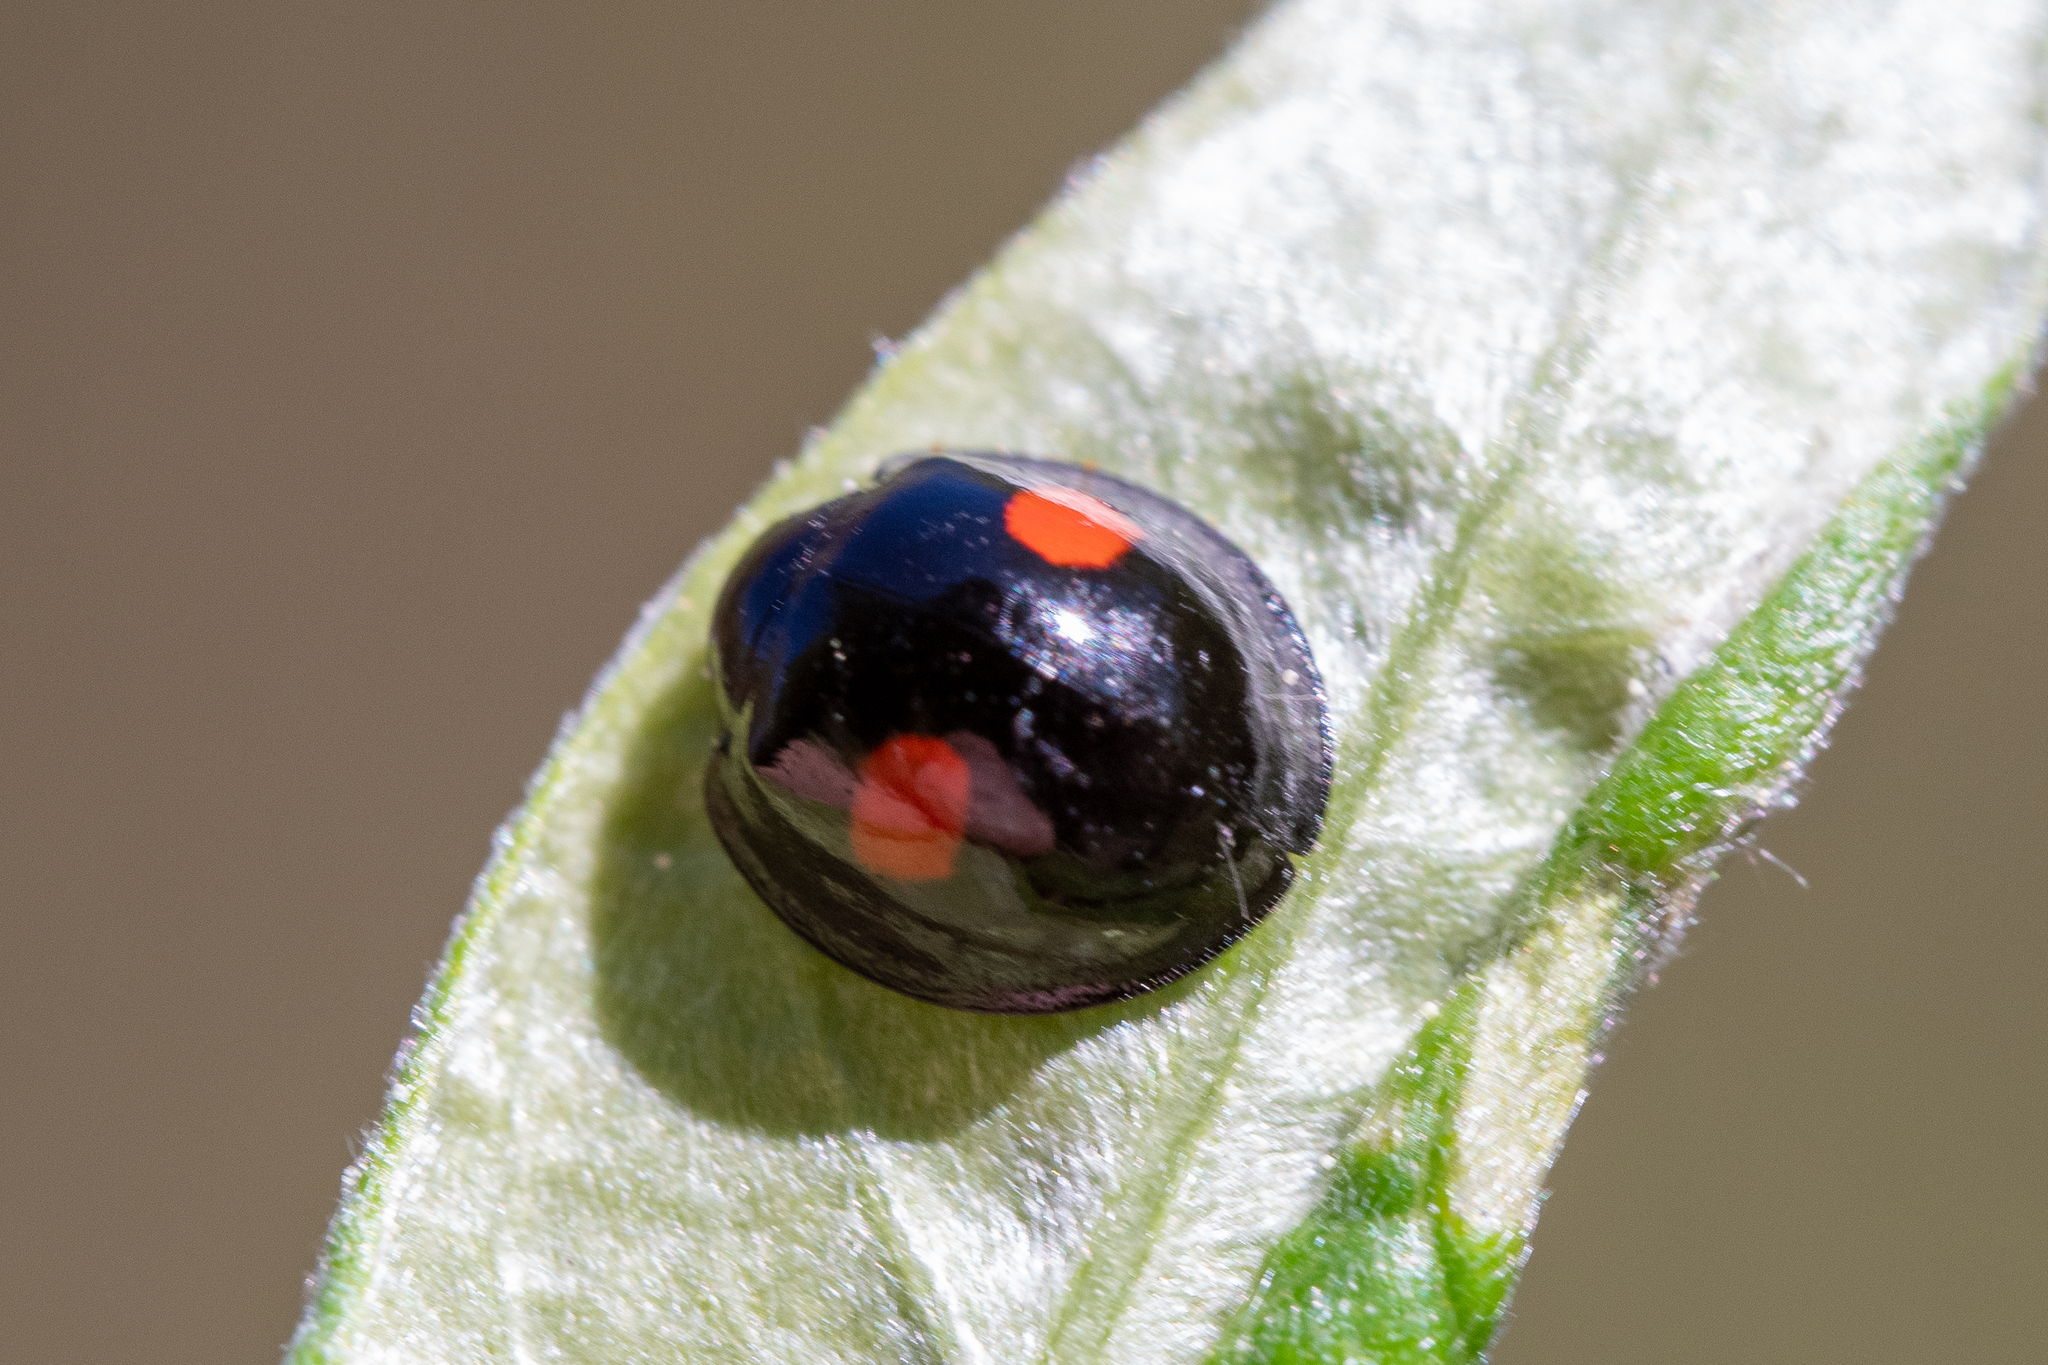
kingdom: Animalia
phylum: Arthropoda
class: Insecta
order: Coleoptera
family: Coccinellidae
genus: Chilocorus
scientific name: Chilocorus renipustulatus
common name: Kidney-spot ladybird
